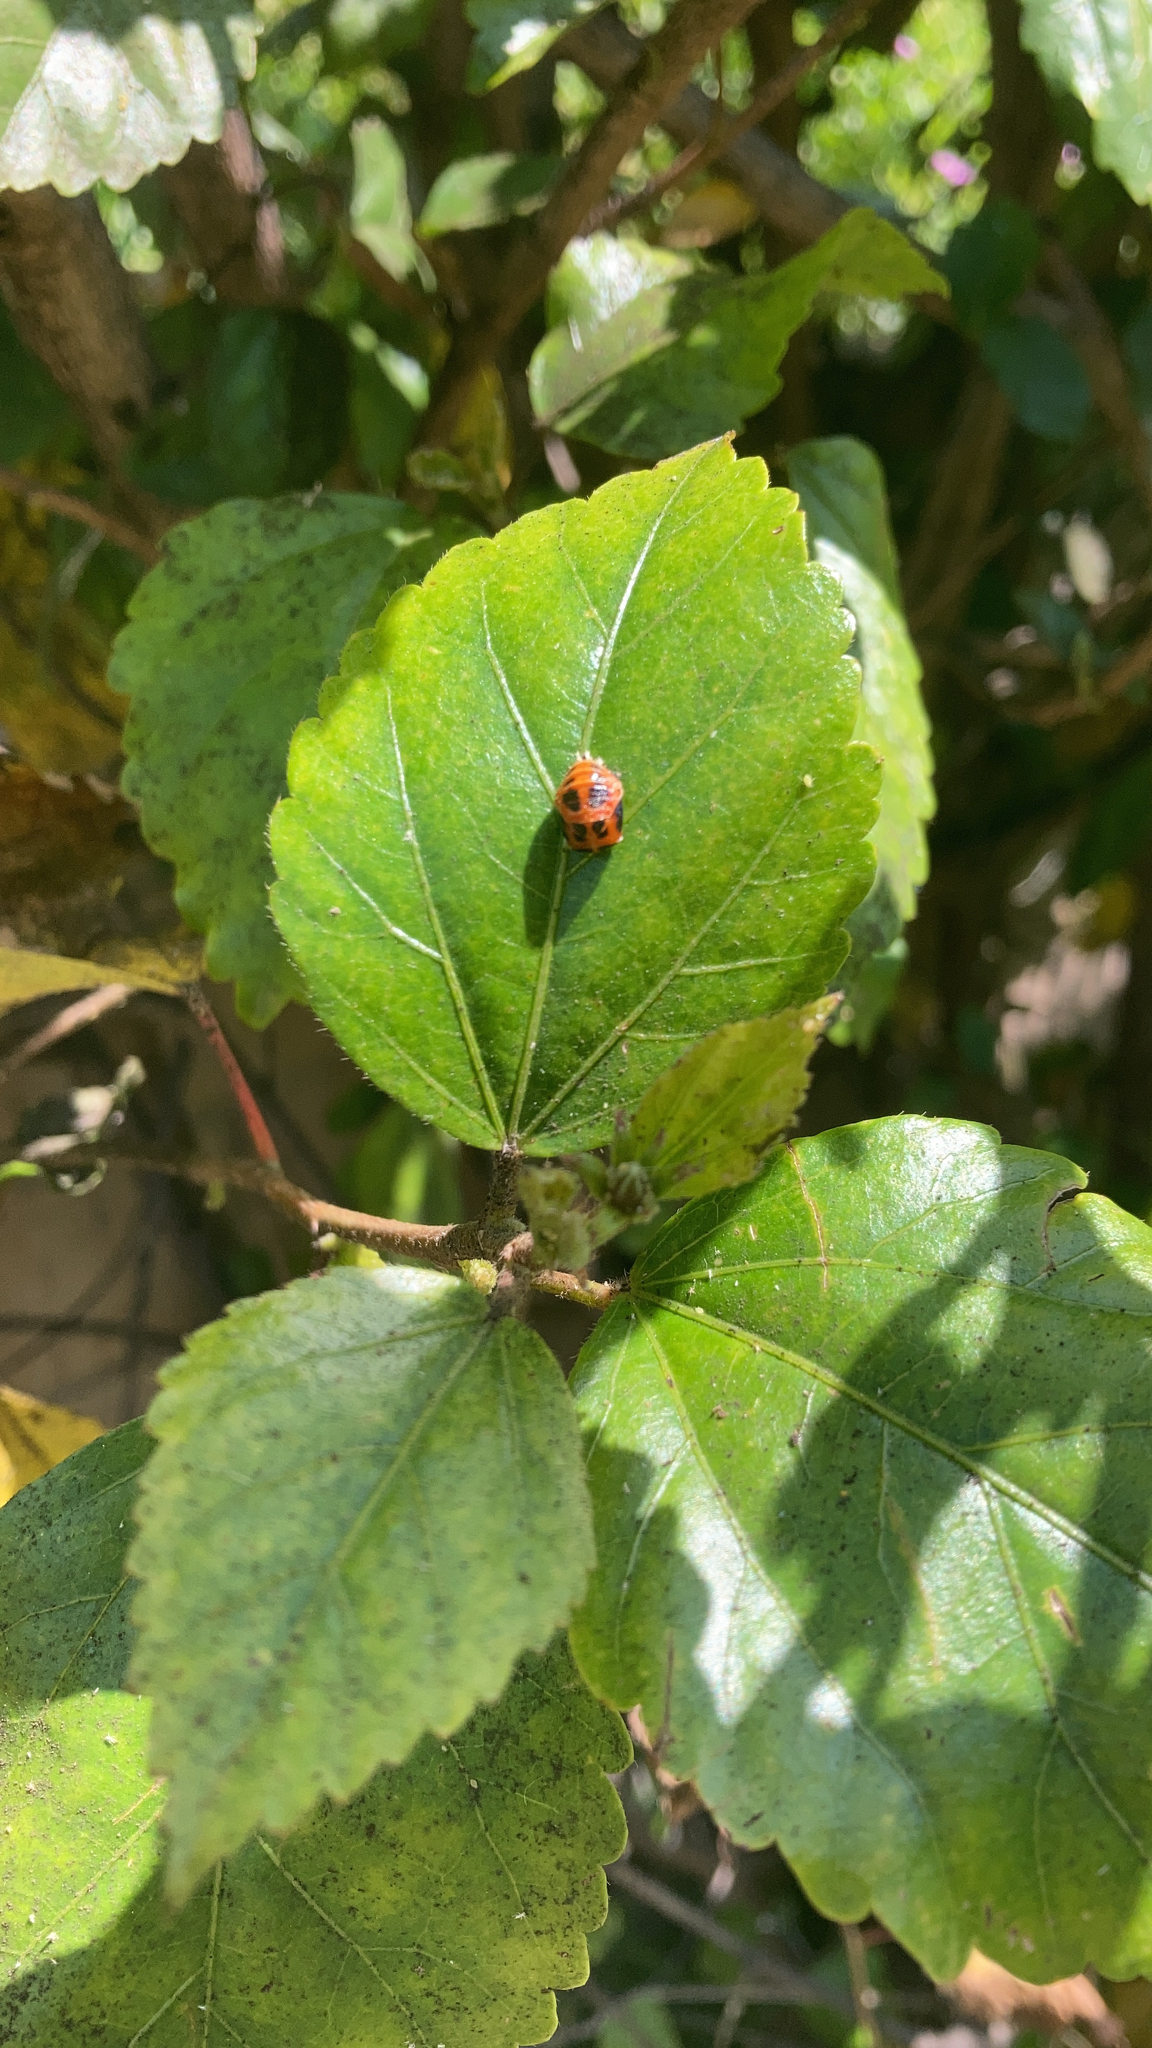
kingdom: Animalia
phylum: Arthropoda
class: Insecta
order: Coleoptera
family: Coccinellidae
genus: Harmonia
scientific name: Harmonia axyridis
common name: Harlequin ladybird
